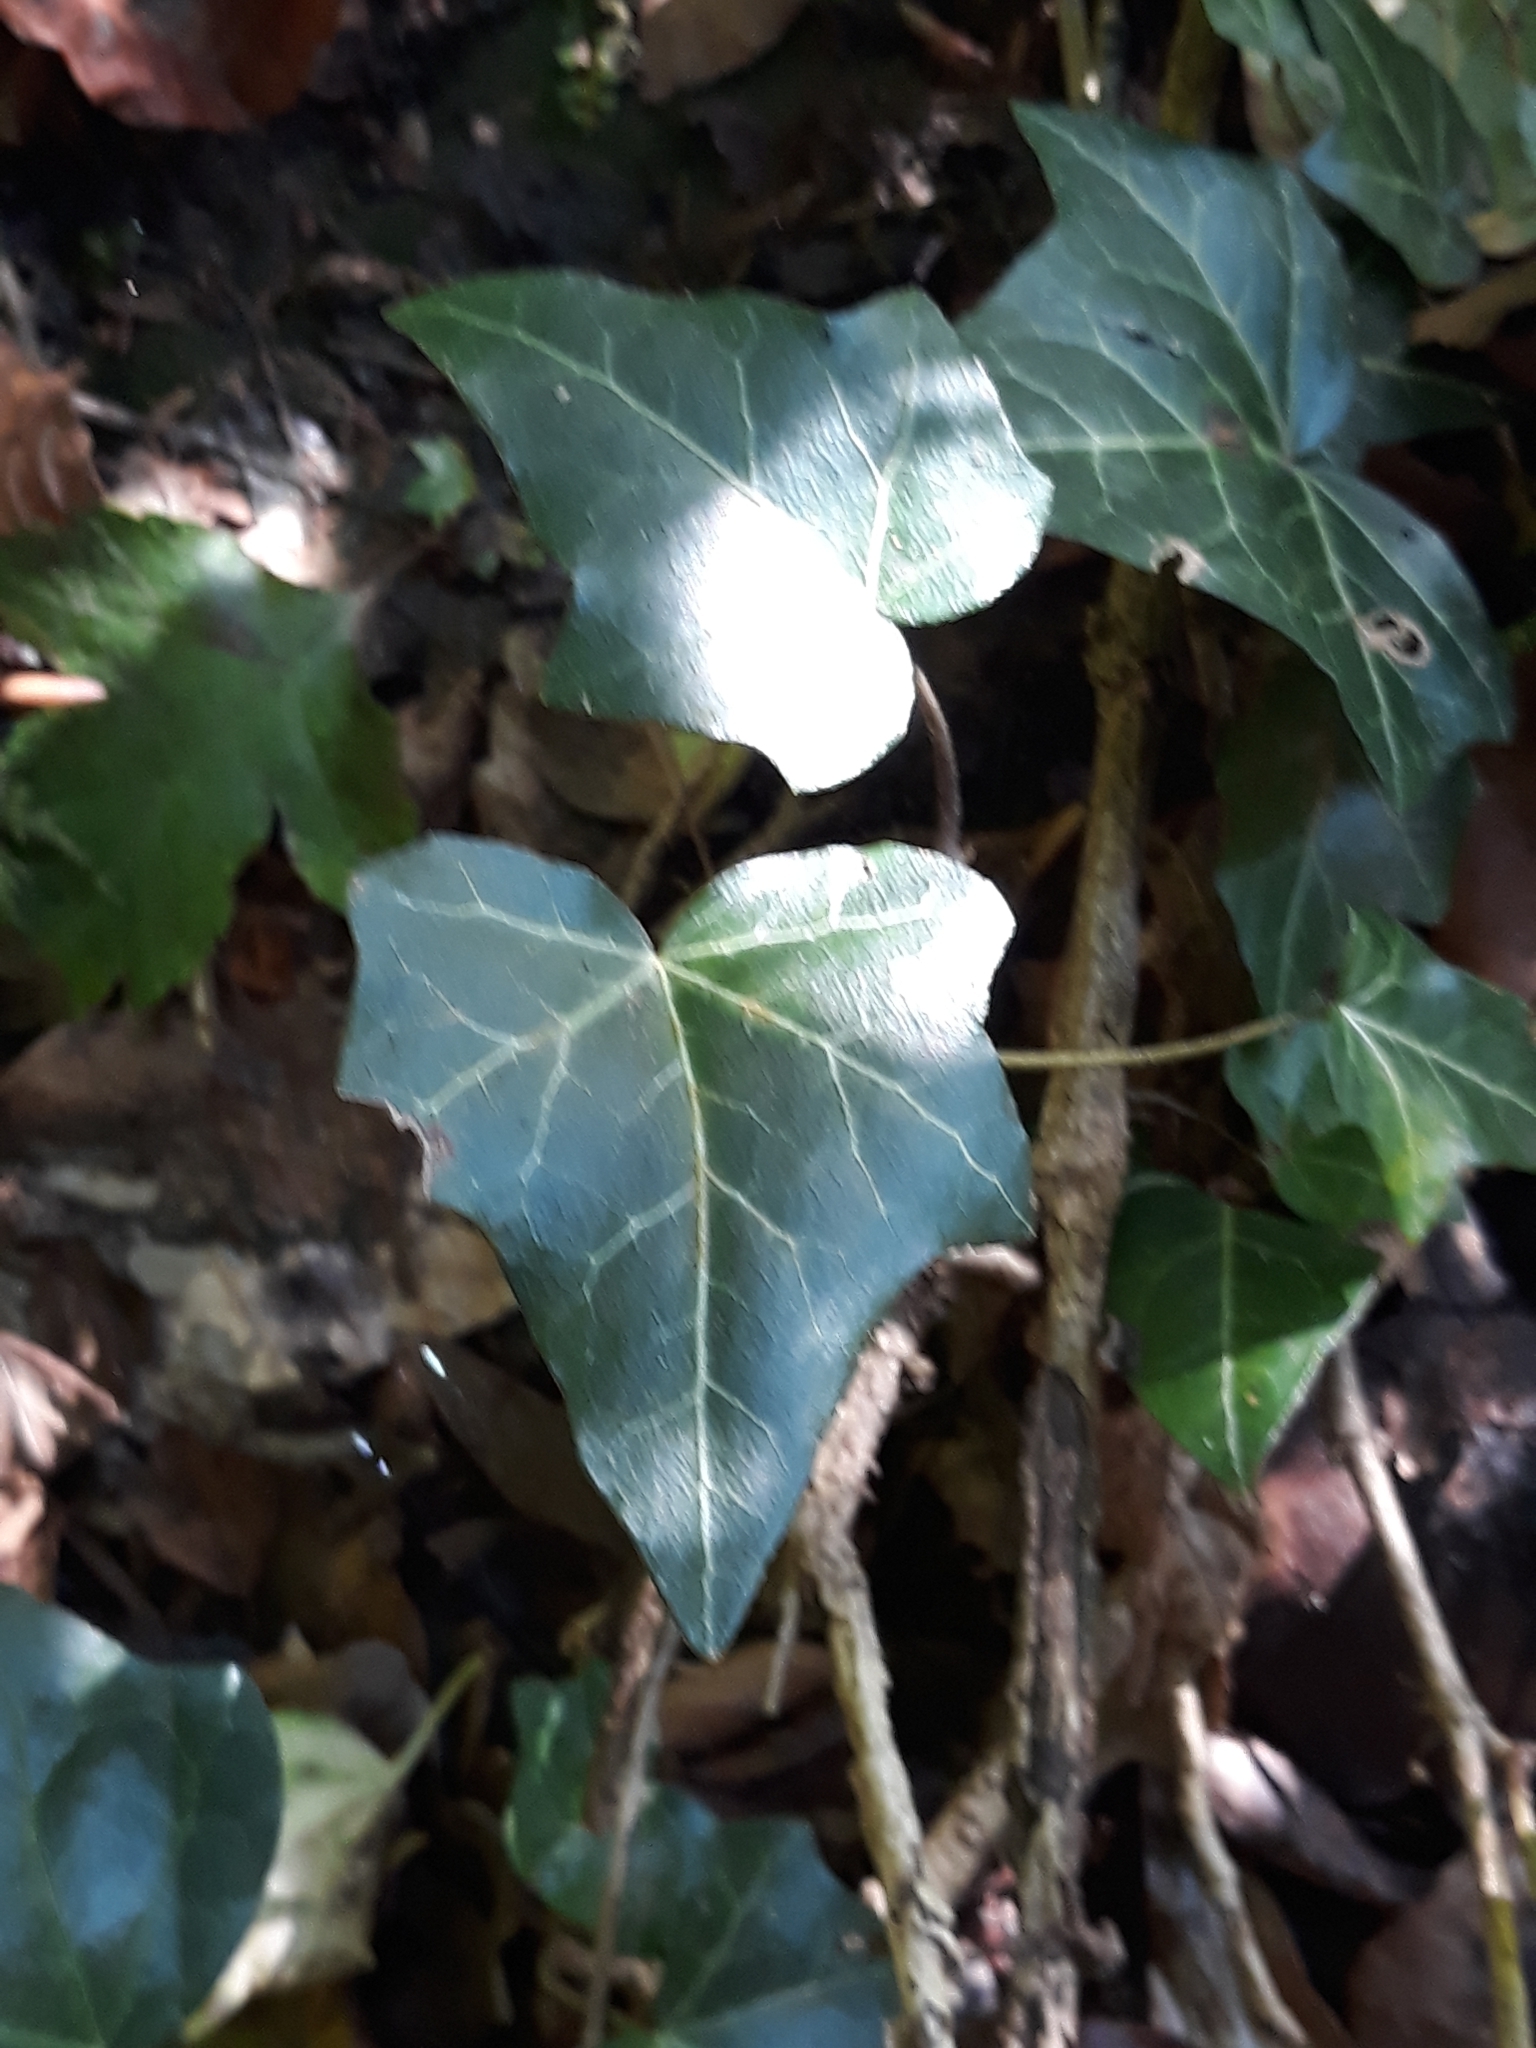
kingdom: Plantae
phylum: Tracheophyta
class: Magnoliopsida
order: Apiales
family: Araliaceae
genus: Hedera
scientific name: Hedera helix
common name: Ivy
